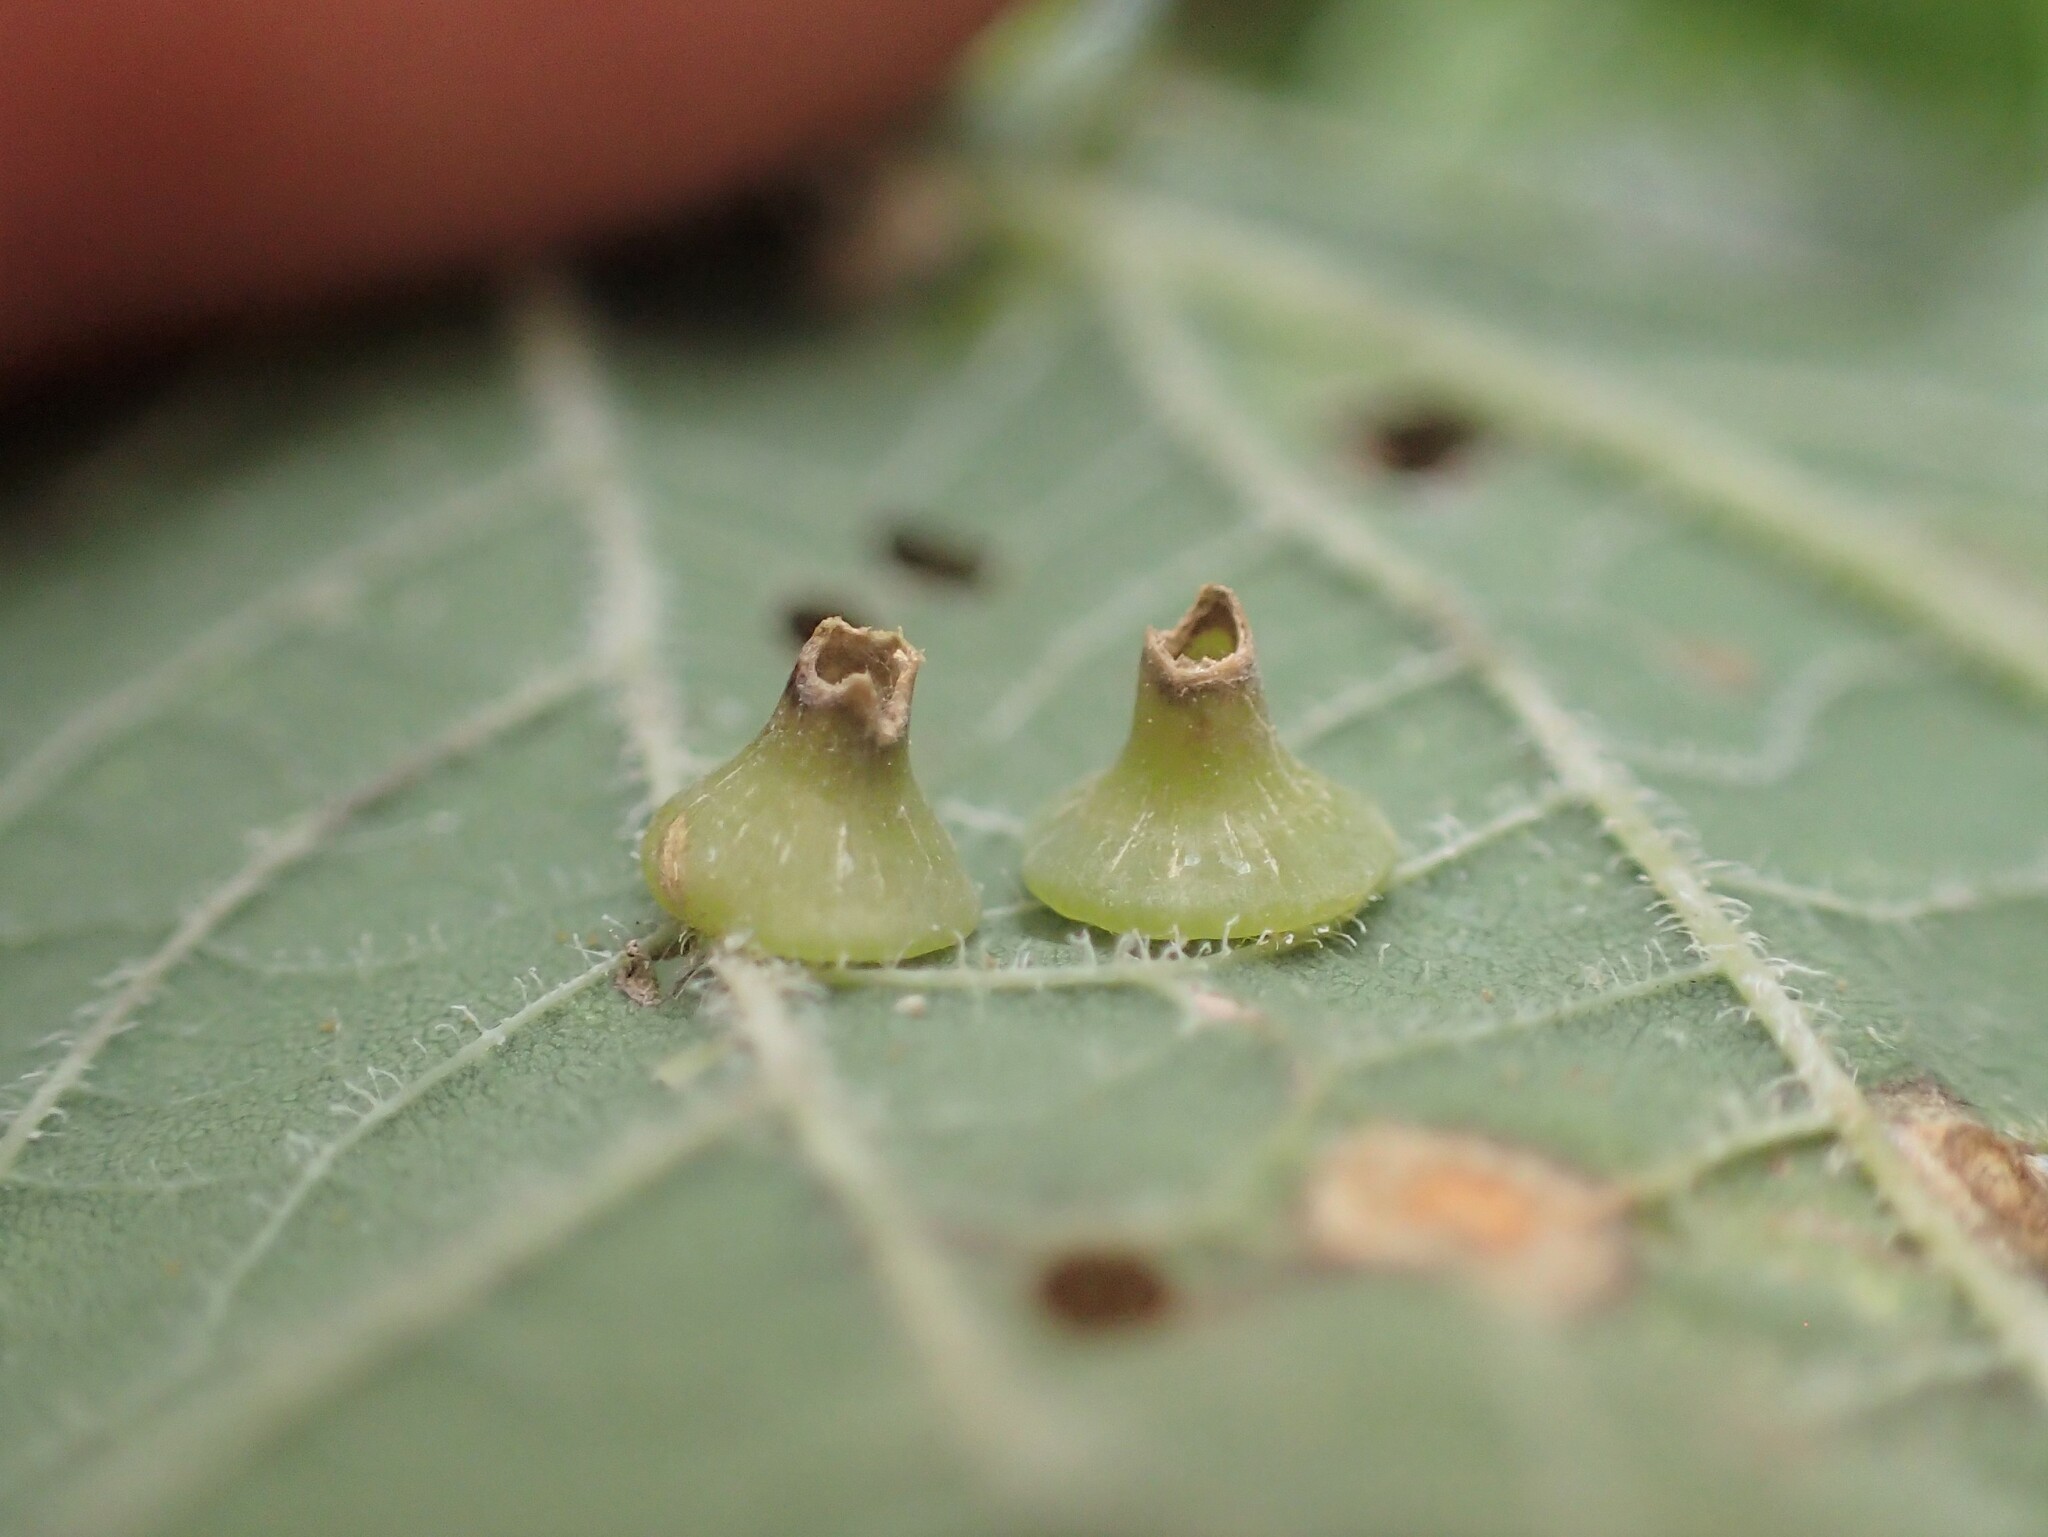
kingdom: Animalia
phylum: Arthropoda
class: Insecta
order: Diptera
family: Cecidomyiidae
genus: Celticecis
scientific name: Celticecis spiniformis
